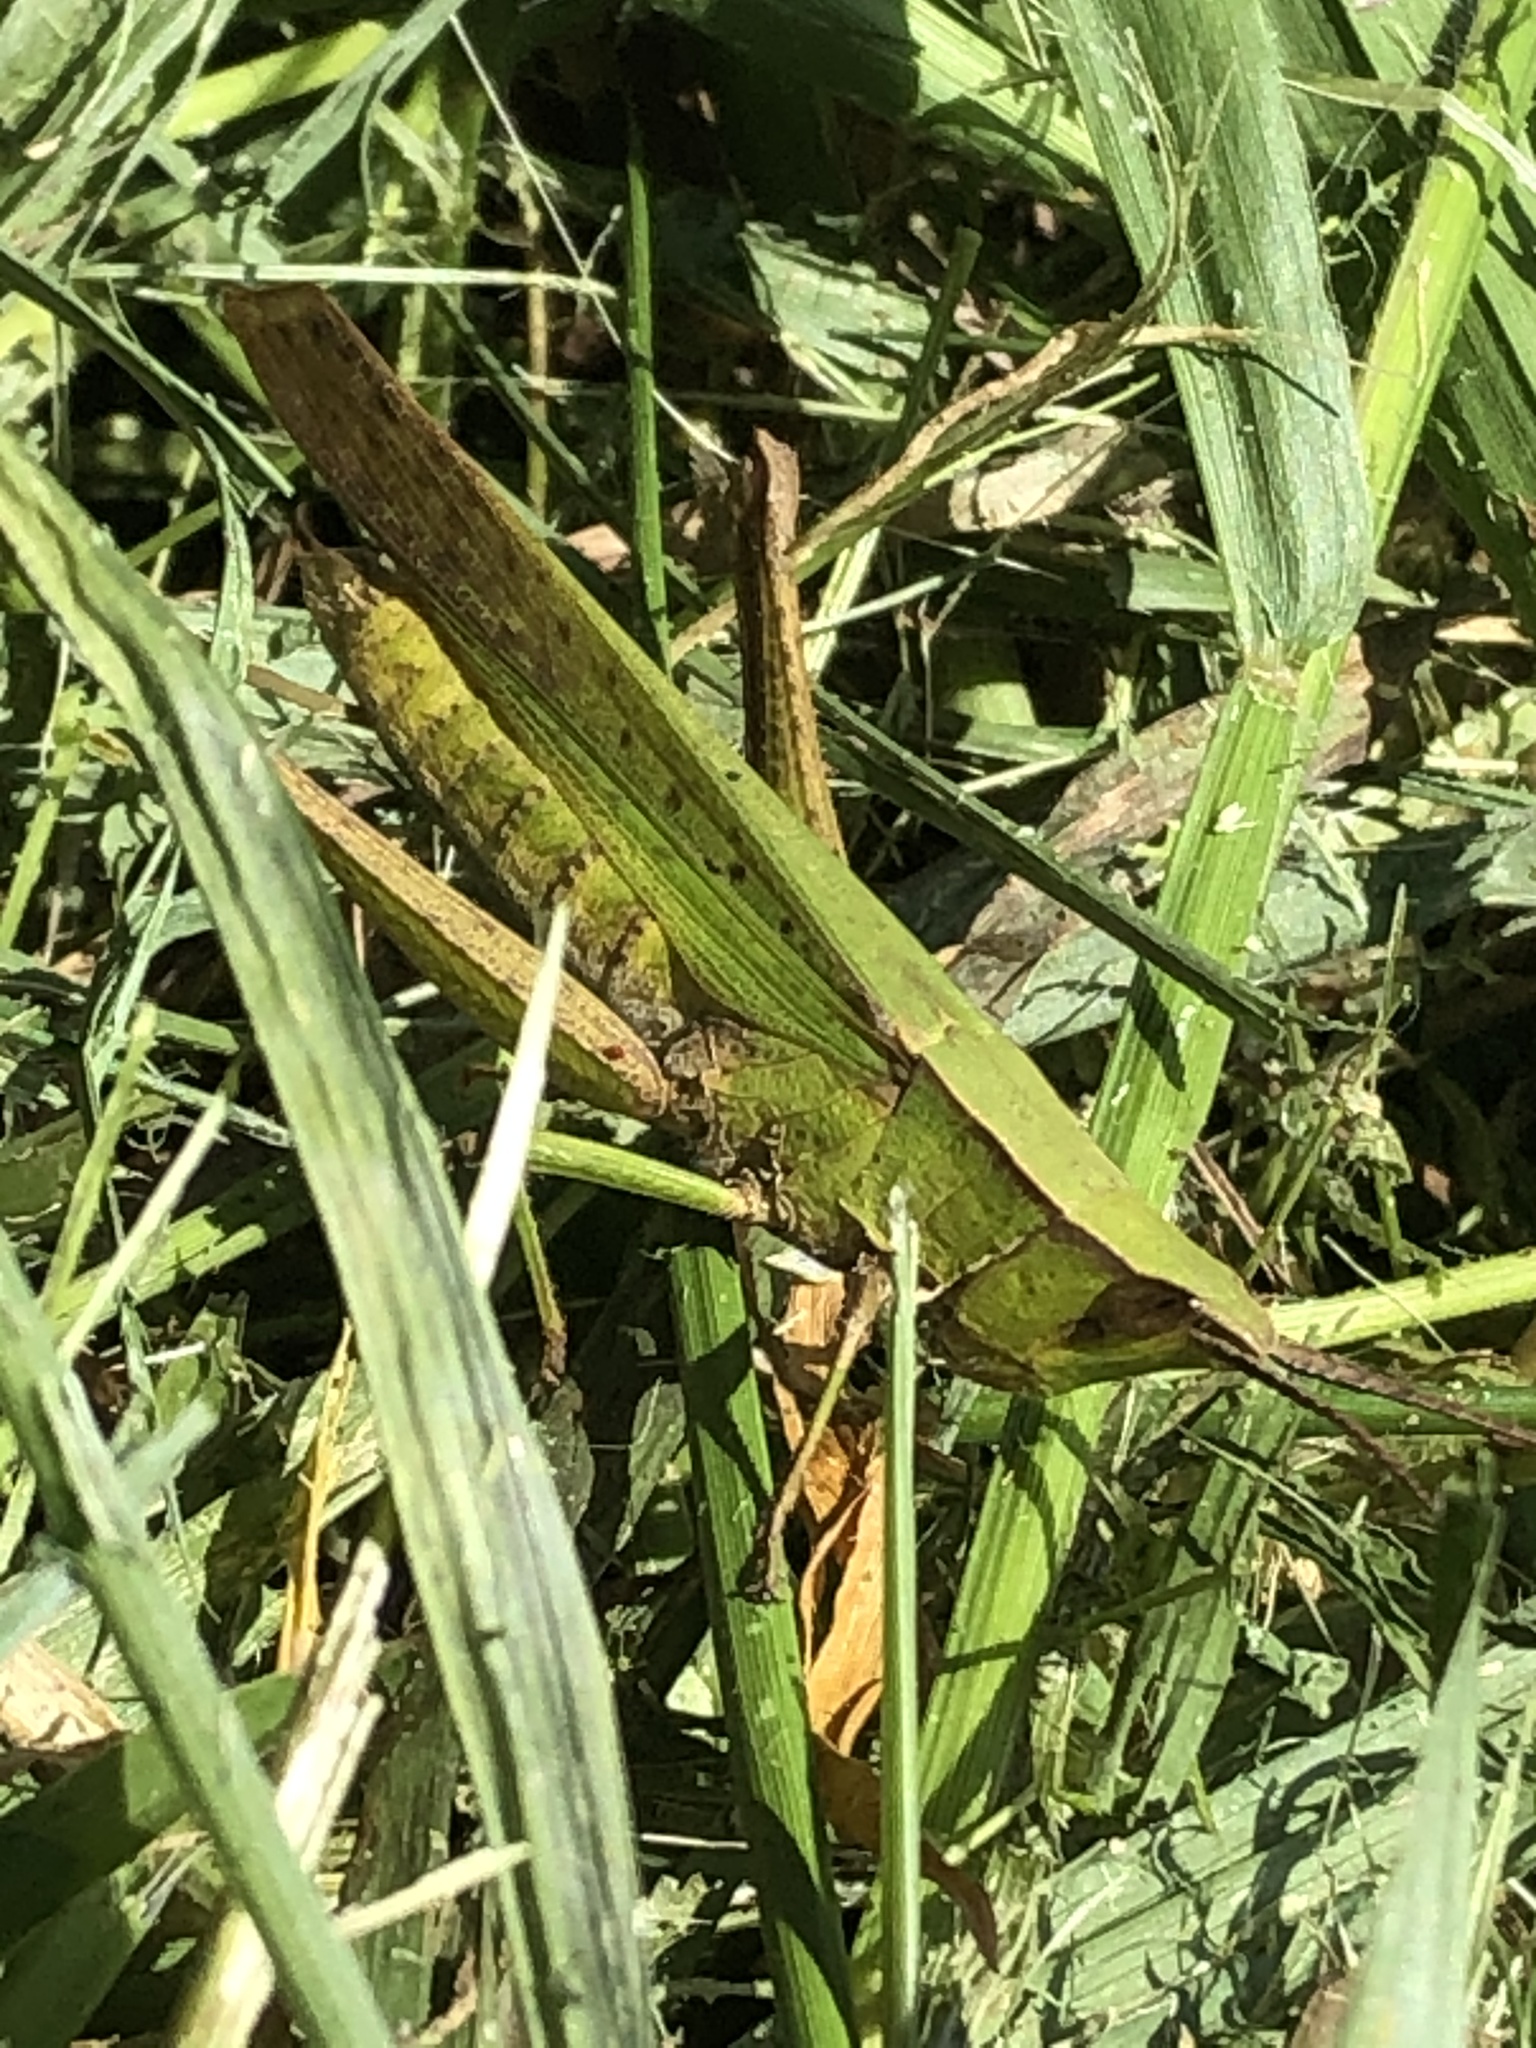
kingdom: Animalia
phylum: Arthropoda
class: Insecta
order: Orthoptera
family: Acrididae
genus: Metaleptea
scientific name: Metaleptea adspersa
